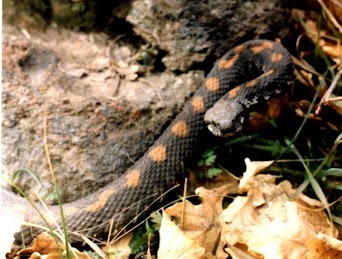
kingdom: Animalia
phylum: Chordata
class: Squamata
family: Viperidae
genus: Montivipera
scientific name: Montivipera raddei
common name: Armenian viper
